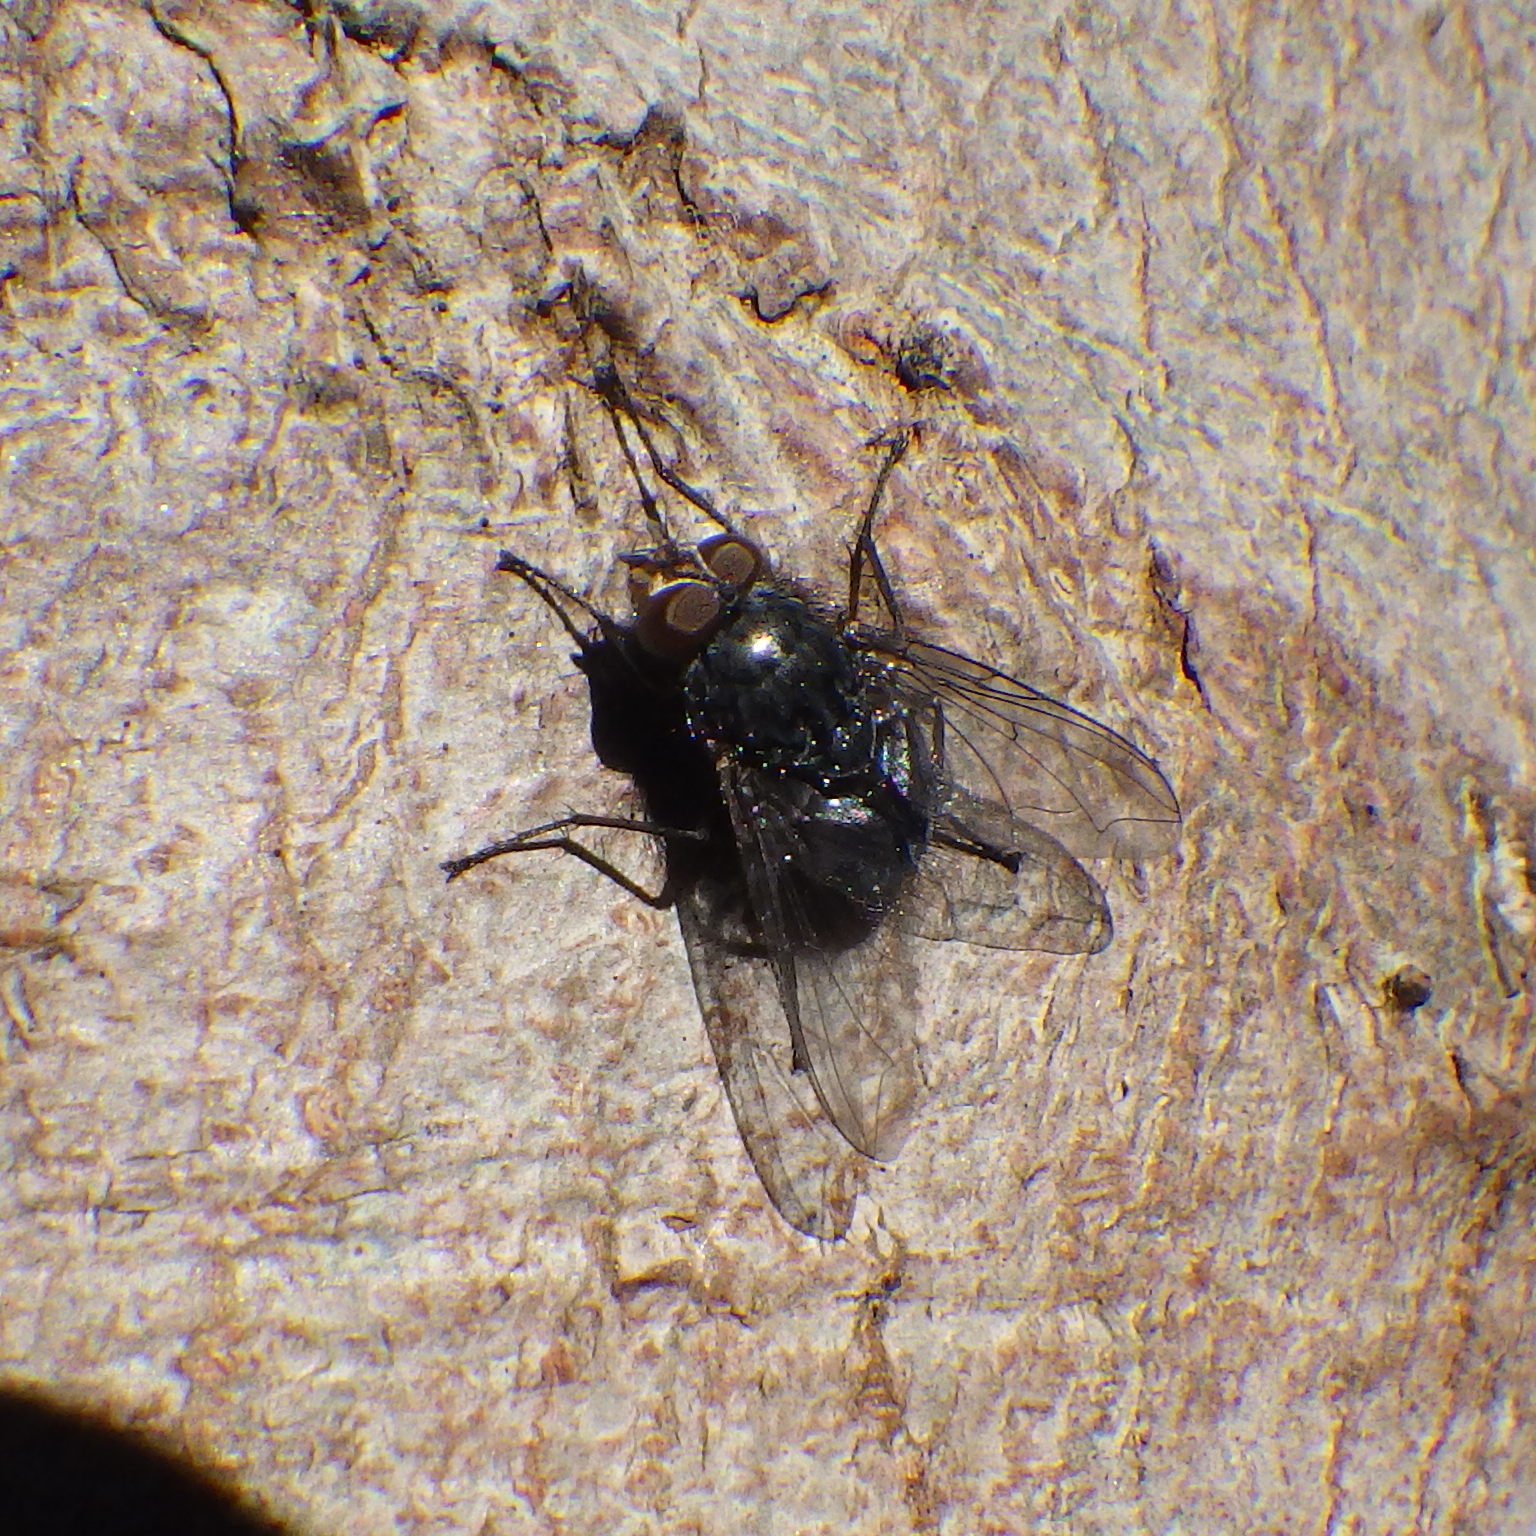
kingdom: Animalia
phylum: Arthropoda
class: Insecta
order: Diptera
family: Calliphoridae
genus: Calliphora
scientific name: Calliphora vicina
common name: Common blow flie
